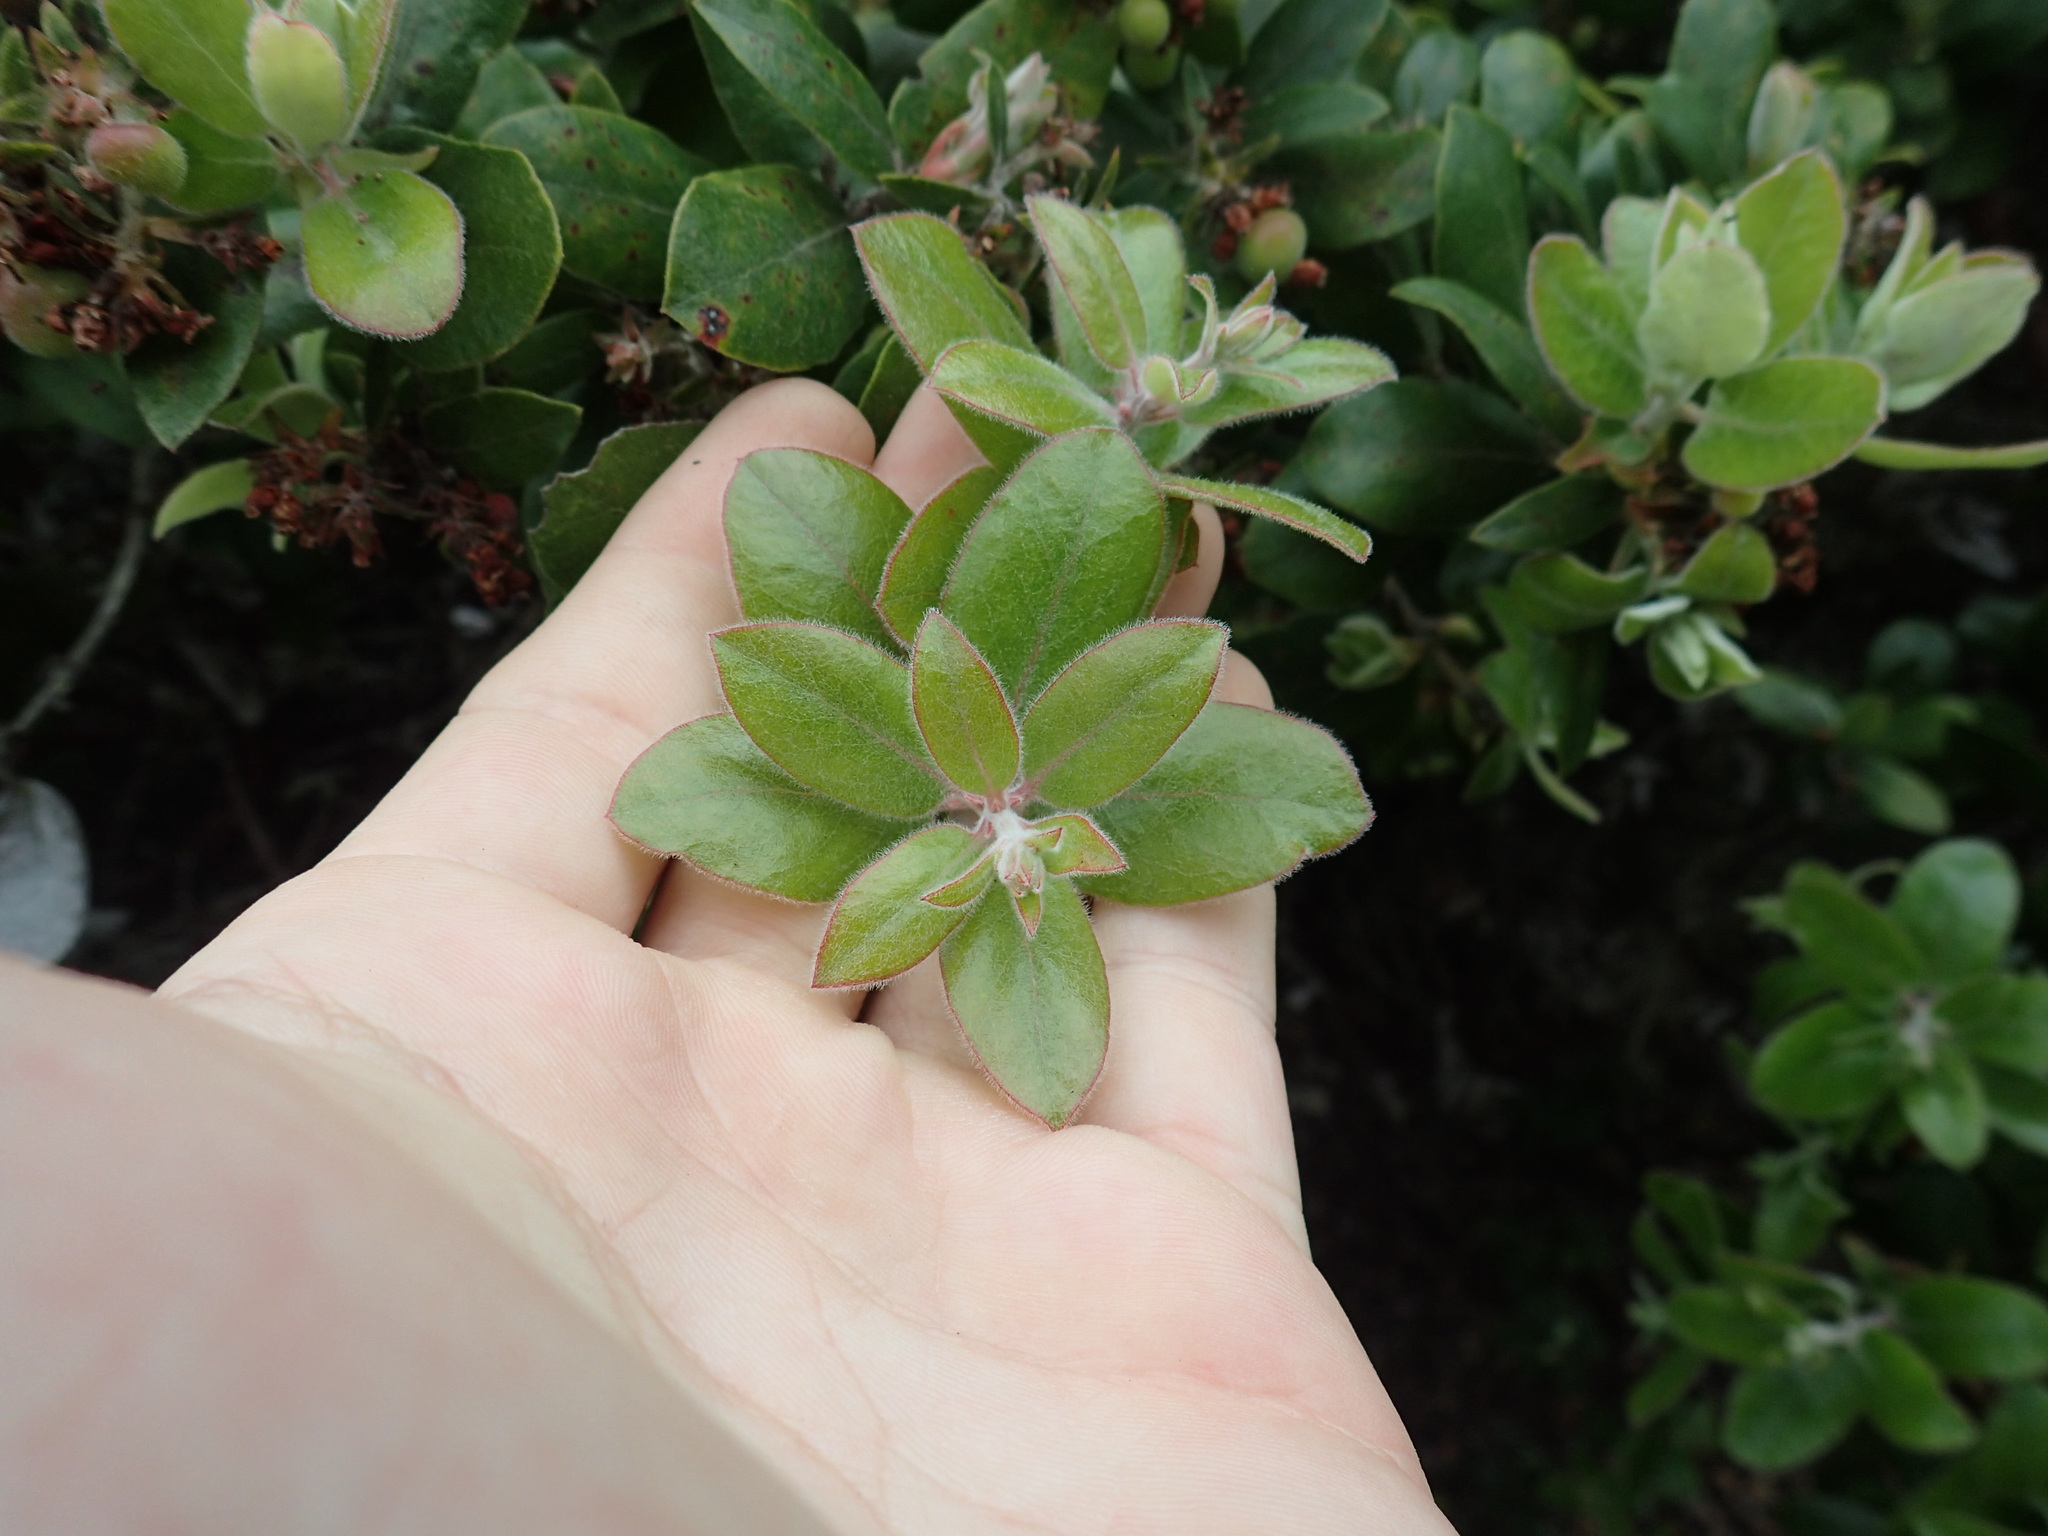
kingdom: Plantae
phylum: Tracheophyta
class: Magnoliopsida
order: Ericales
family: Ericaceae
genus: Arctostaphylos
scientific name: Arctostaphylos tomentosa
